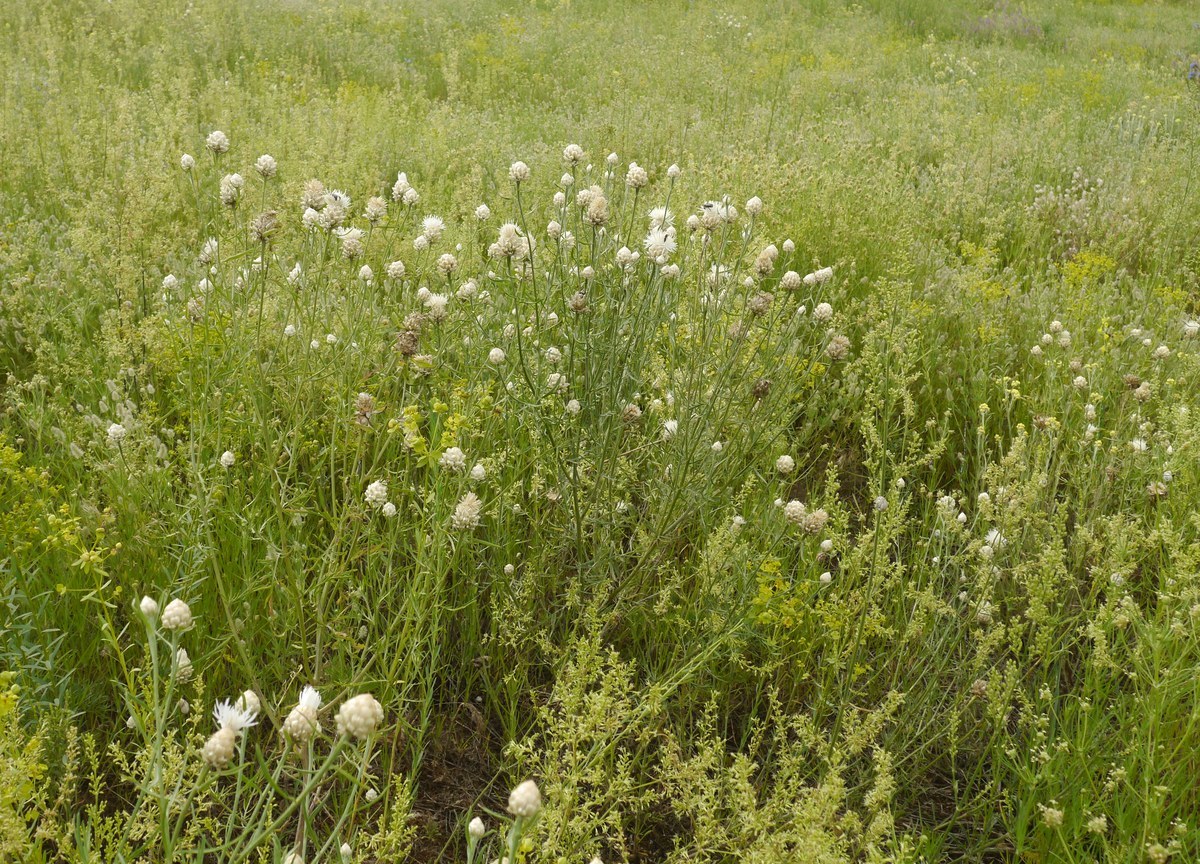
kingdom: Plantae
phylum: Tracheophyta
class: Magnoliopsida
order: Asterales
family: Asteraceae
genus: Centaurea
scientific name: Centaurea splendens
